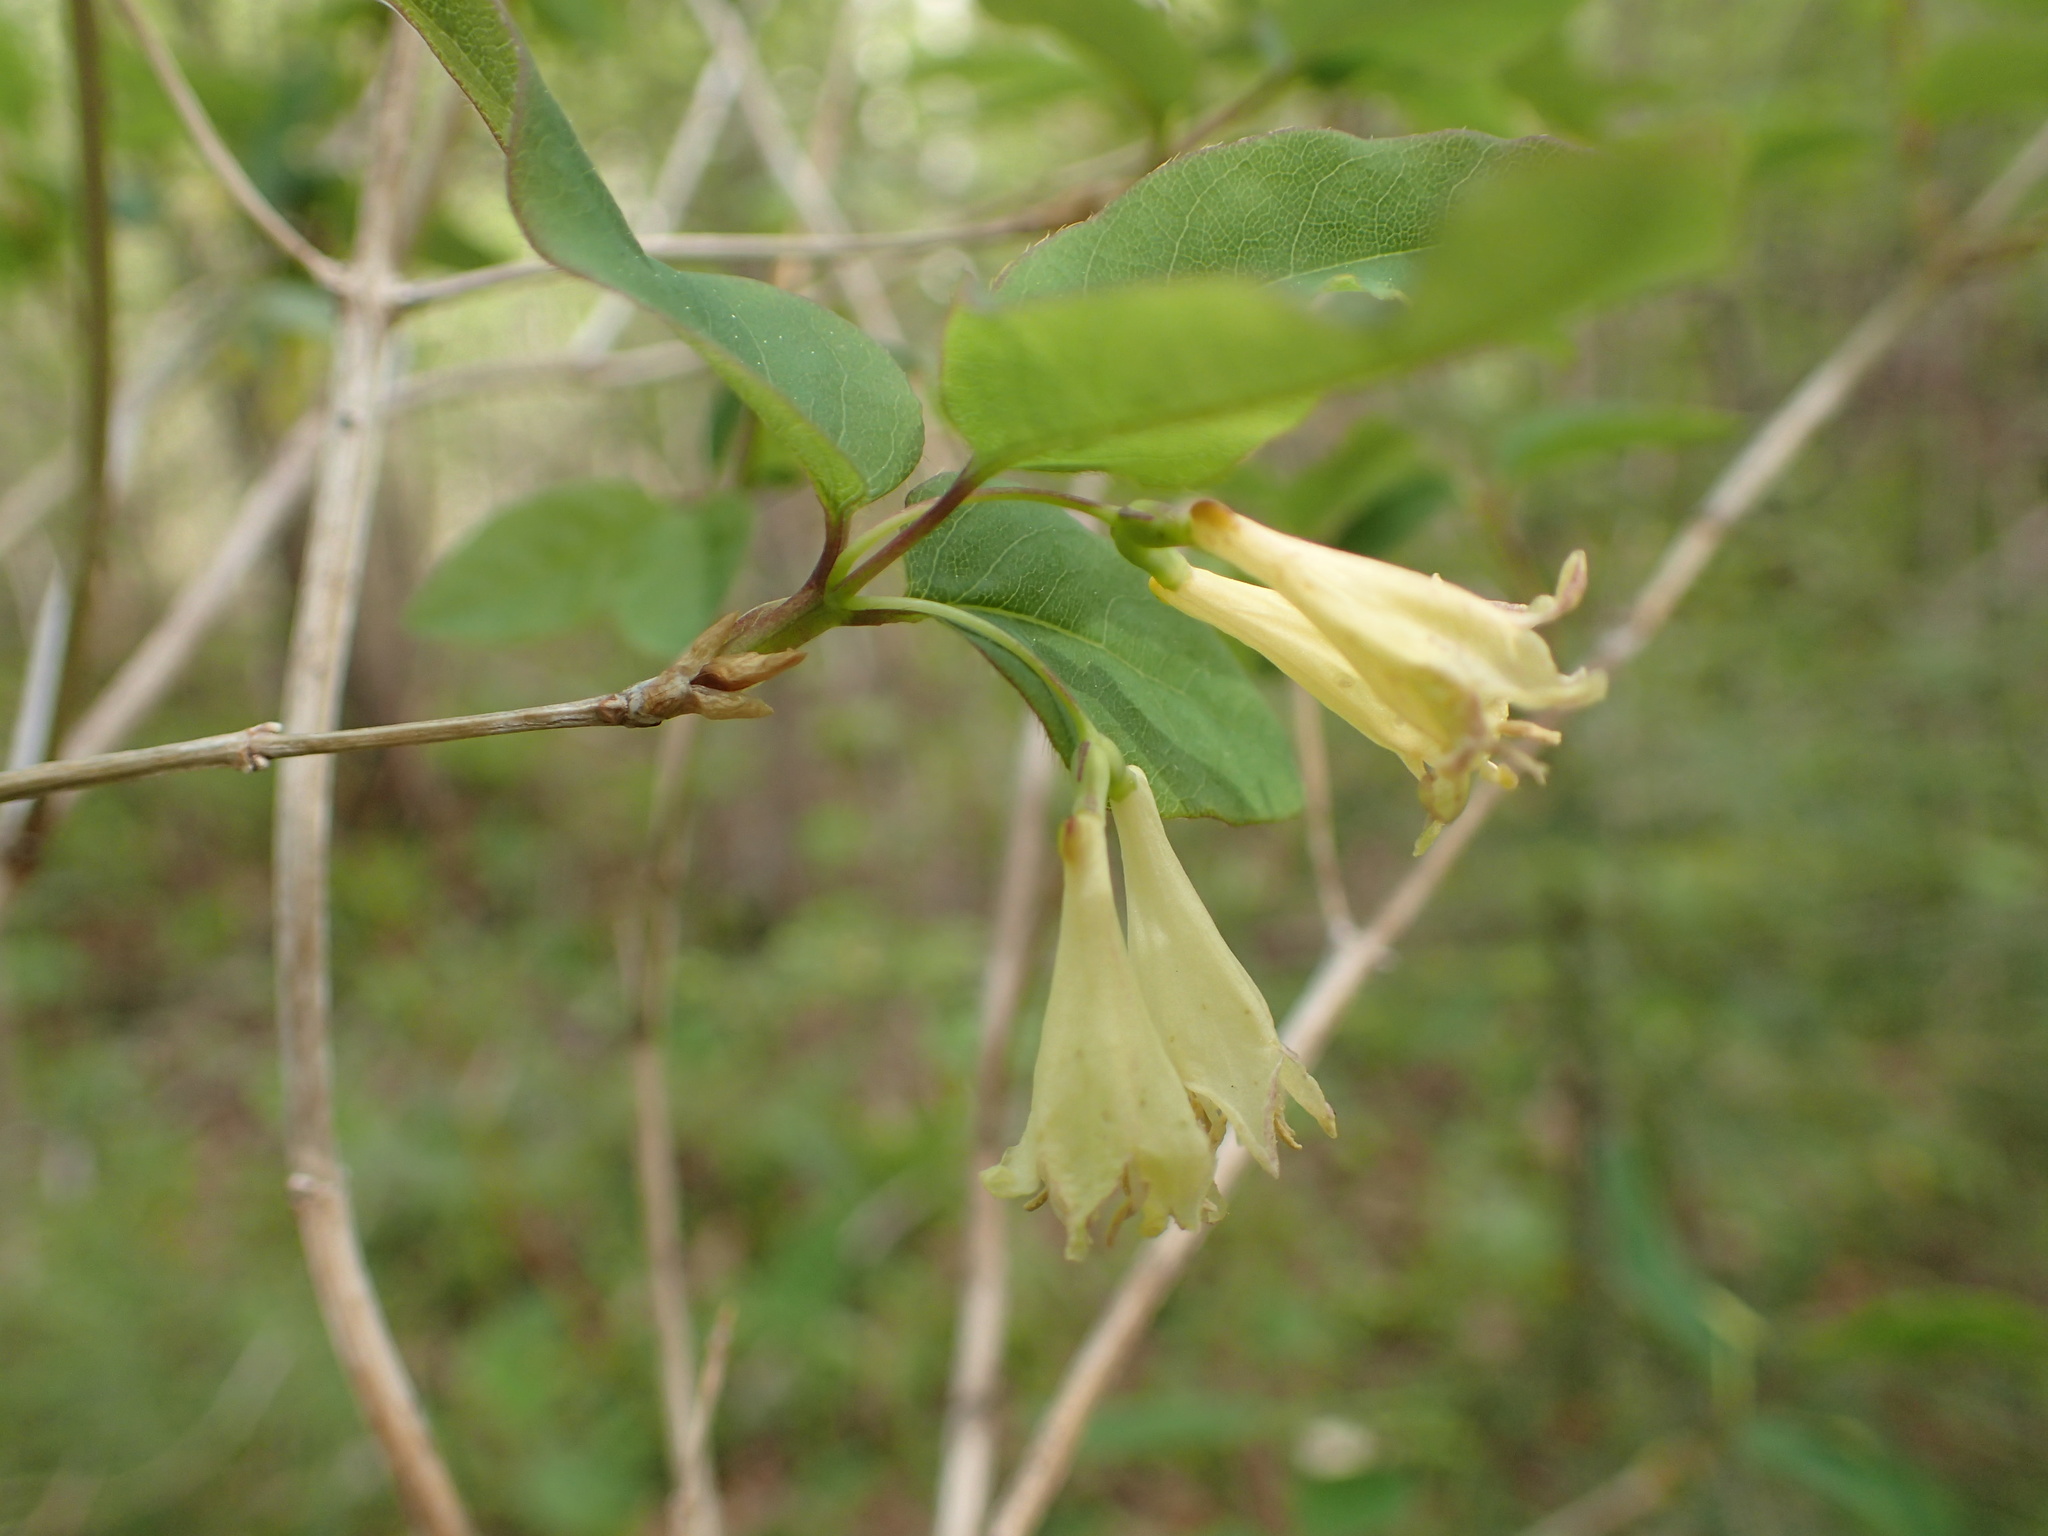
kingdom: Plantae
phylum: Tracheophyta
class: Magnoliopsida
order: Dipsacales
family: Caprifoliaceae
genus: Lonicera
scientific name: Lonicera canadensis
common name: American fly-honeysuckle
